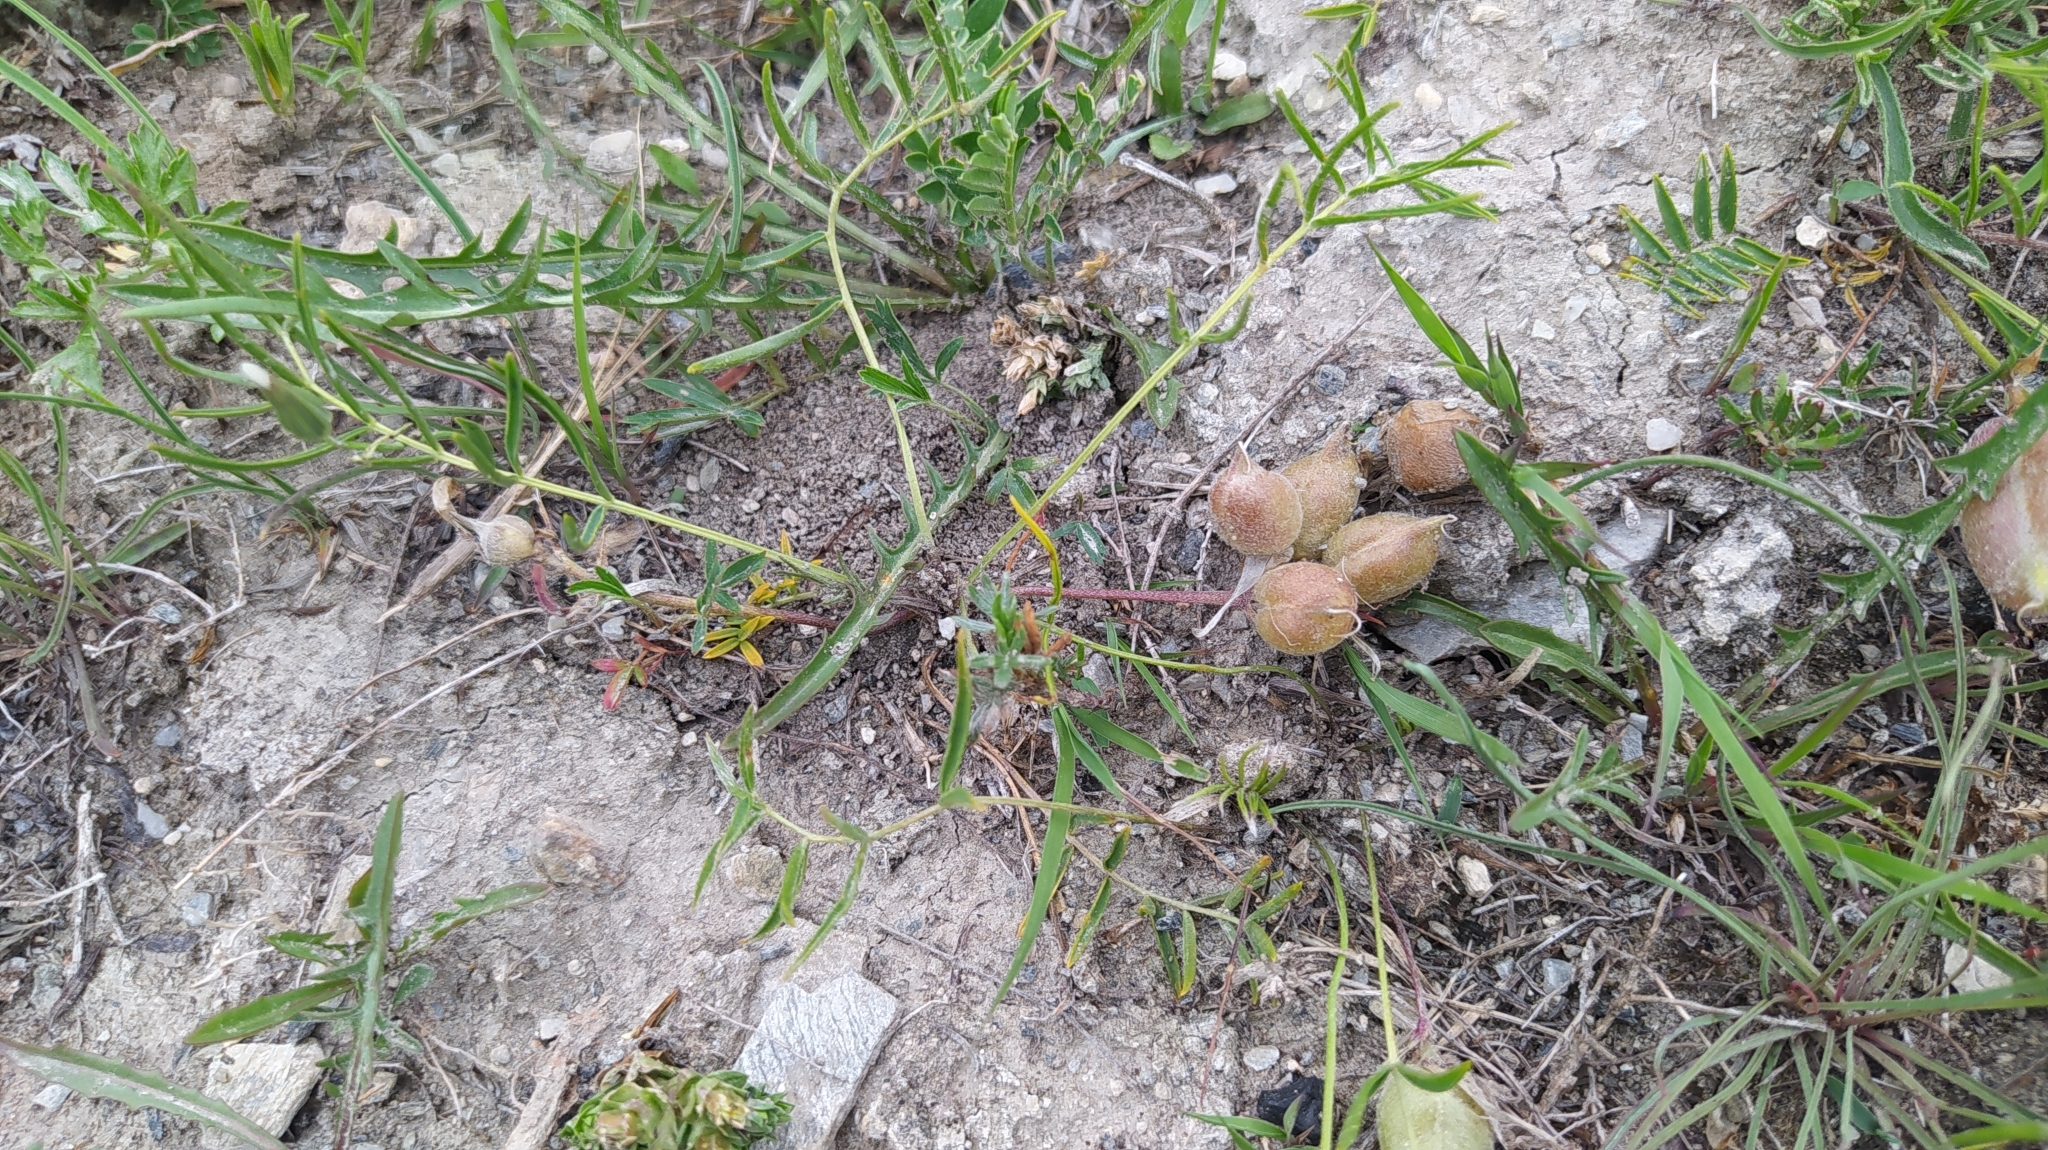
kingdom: Plantae
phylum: Tracheophyta
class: Magnoliopsida
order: Fabales
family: Fabaceae
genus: Oxytropis
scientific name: Oxytropis leptophylla
